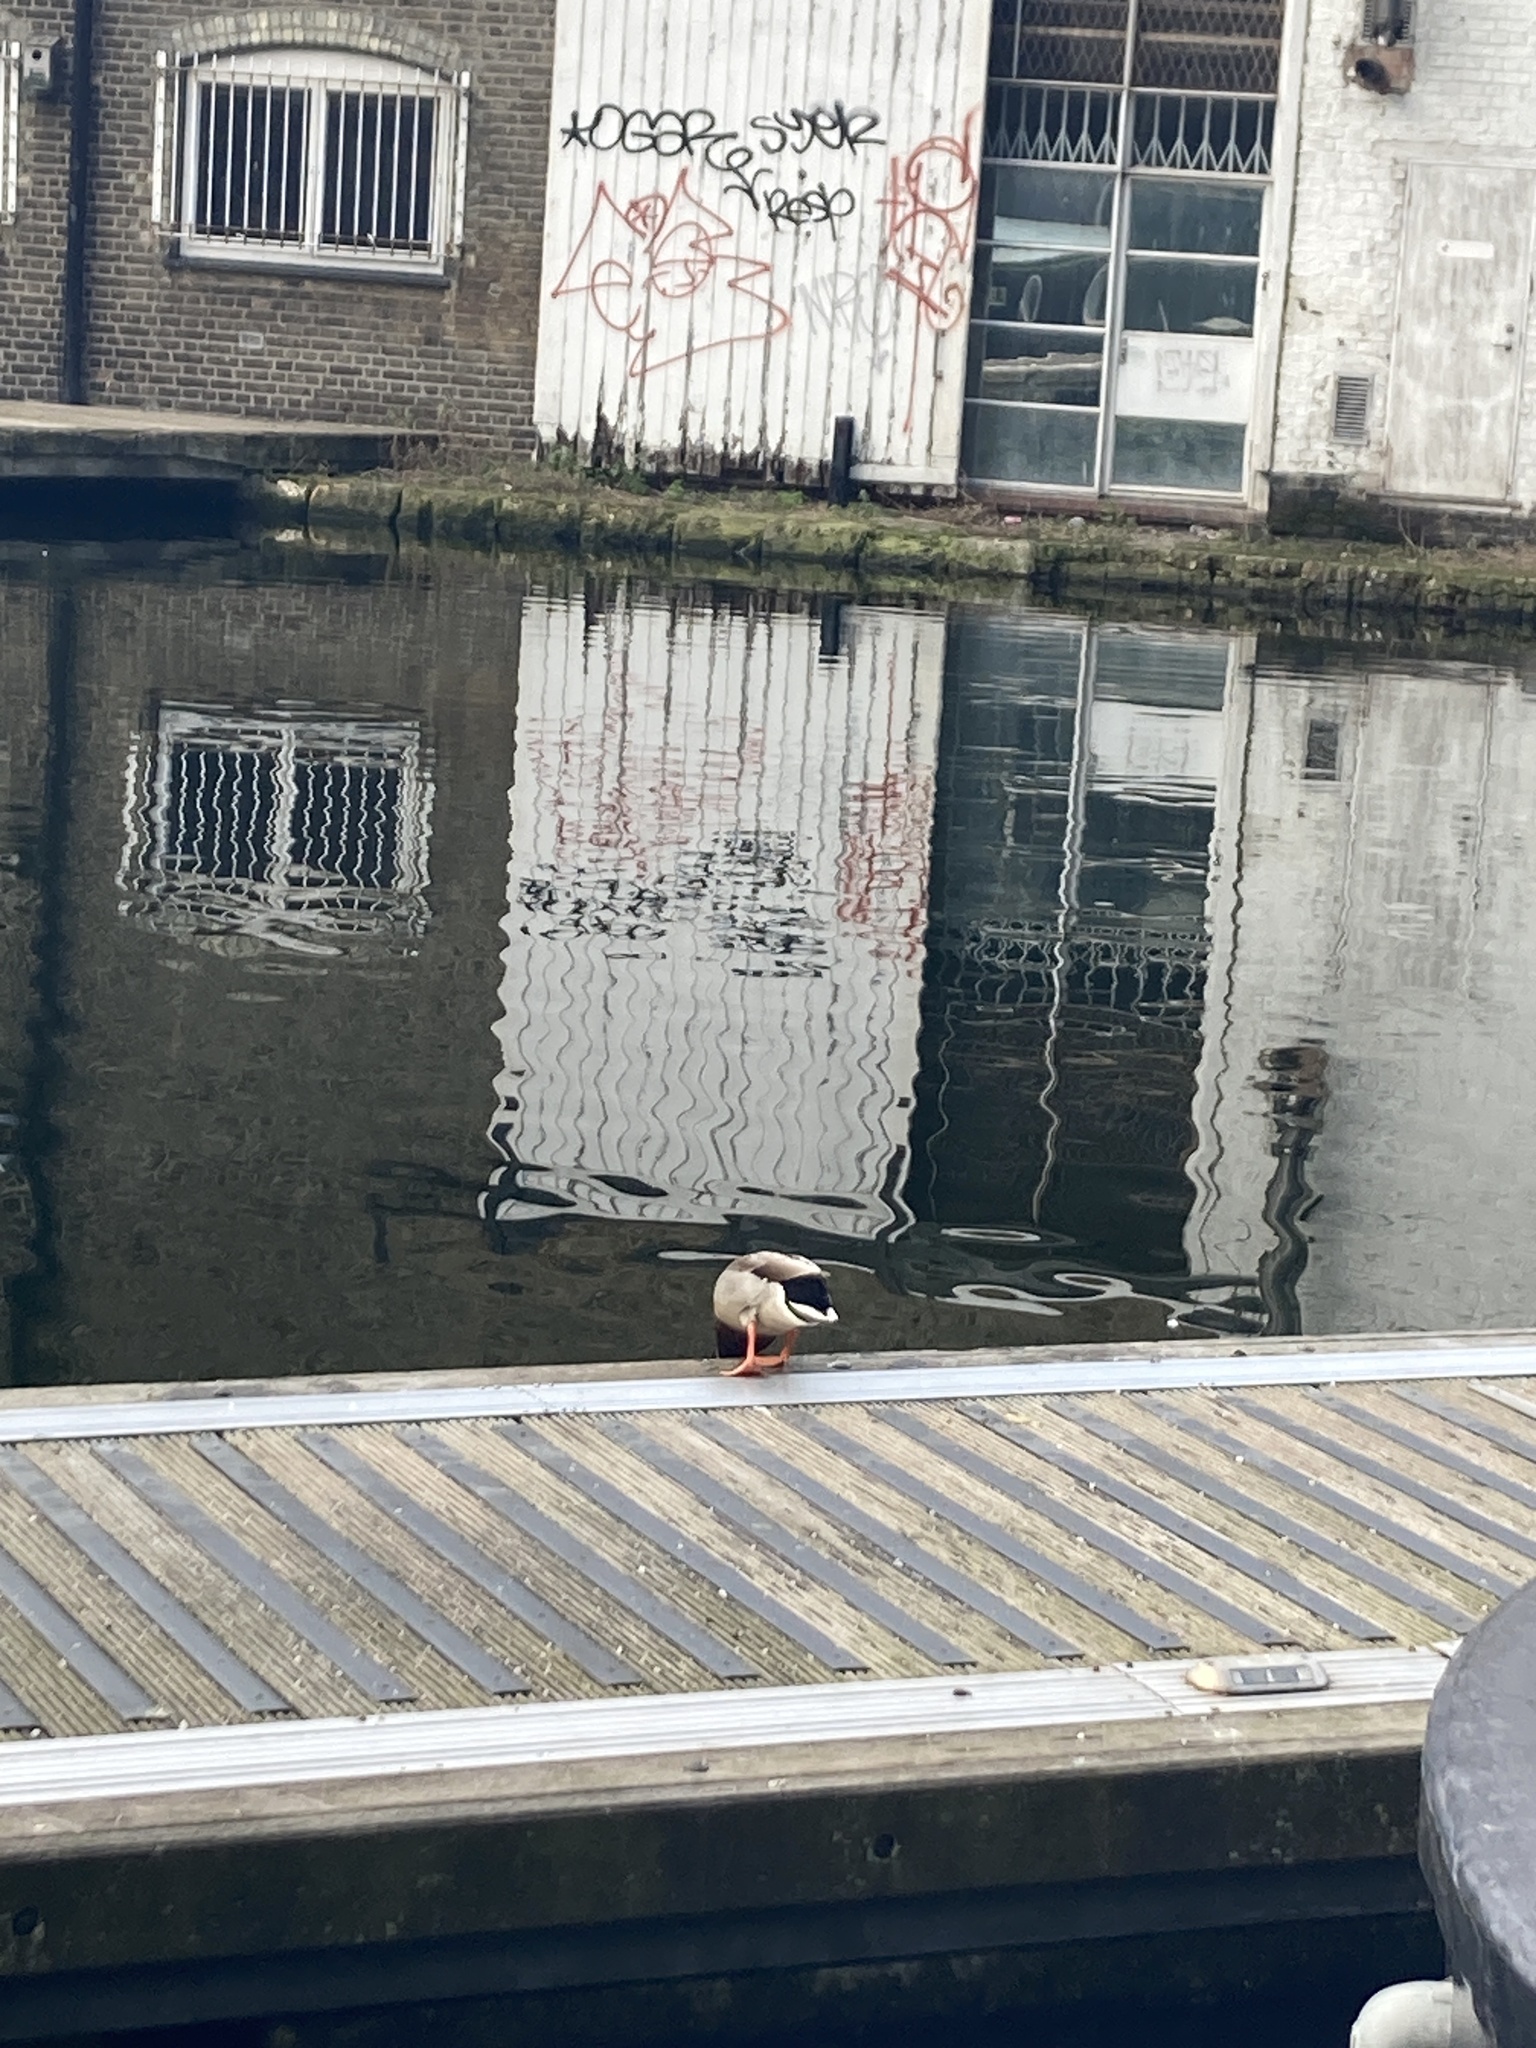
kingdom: Animalia
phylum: Chordata
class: Aves
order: Anseriformes
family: Anatidae
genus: Anas
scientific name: Anas platyrhynchos
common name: Mallard
